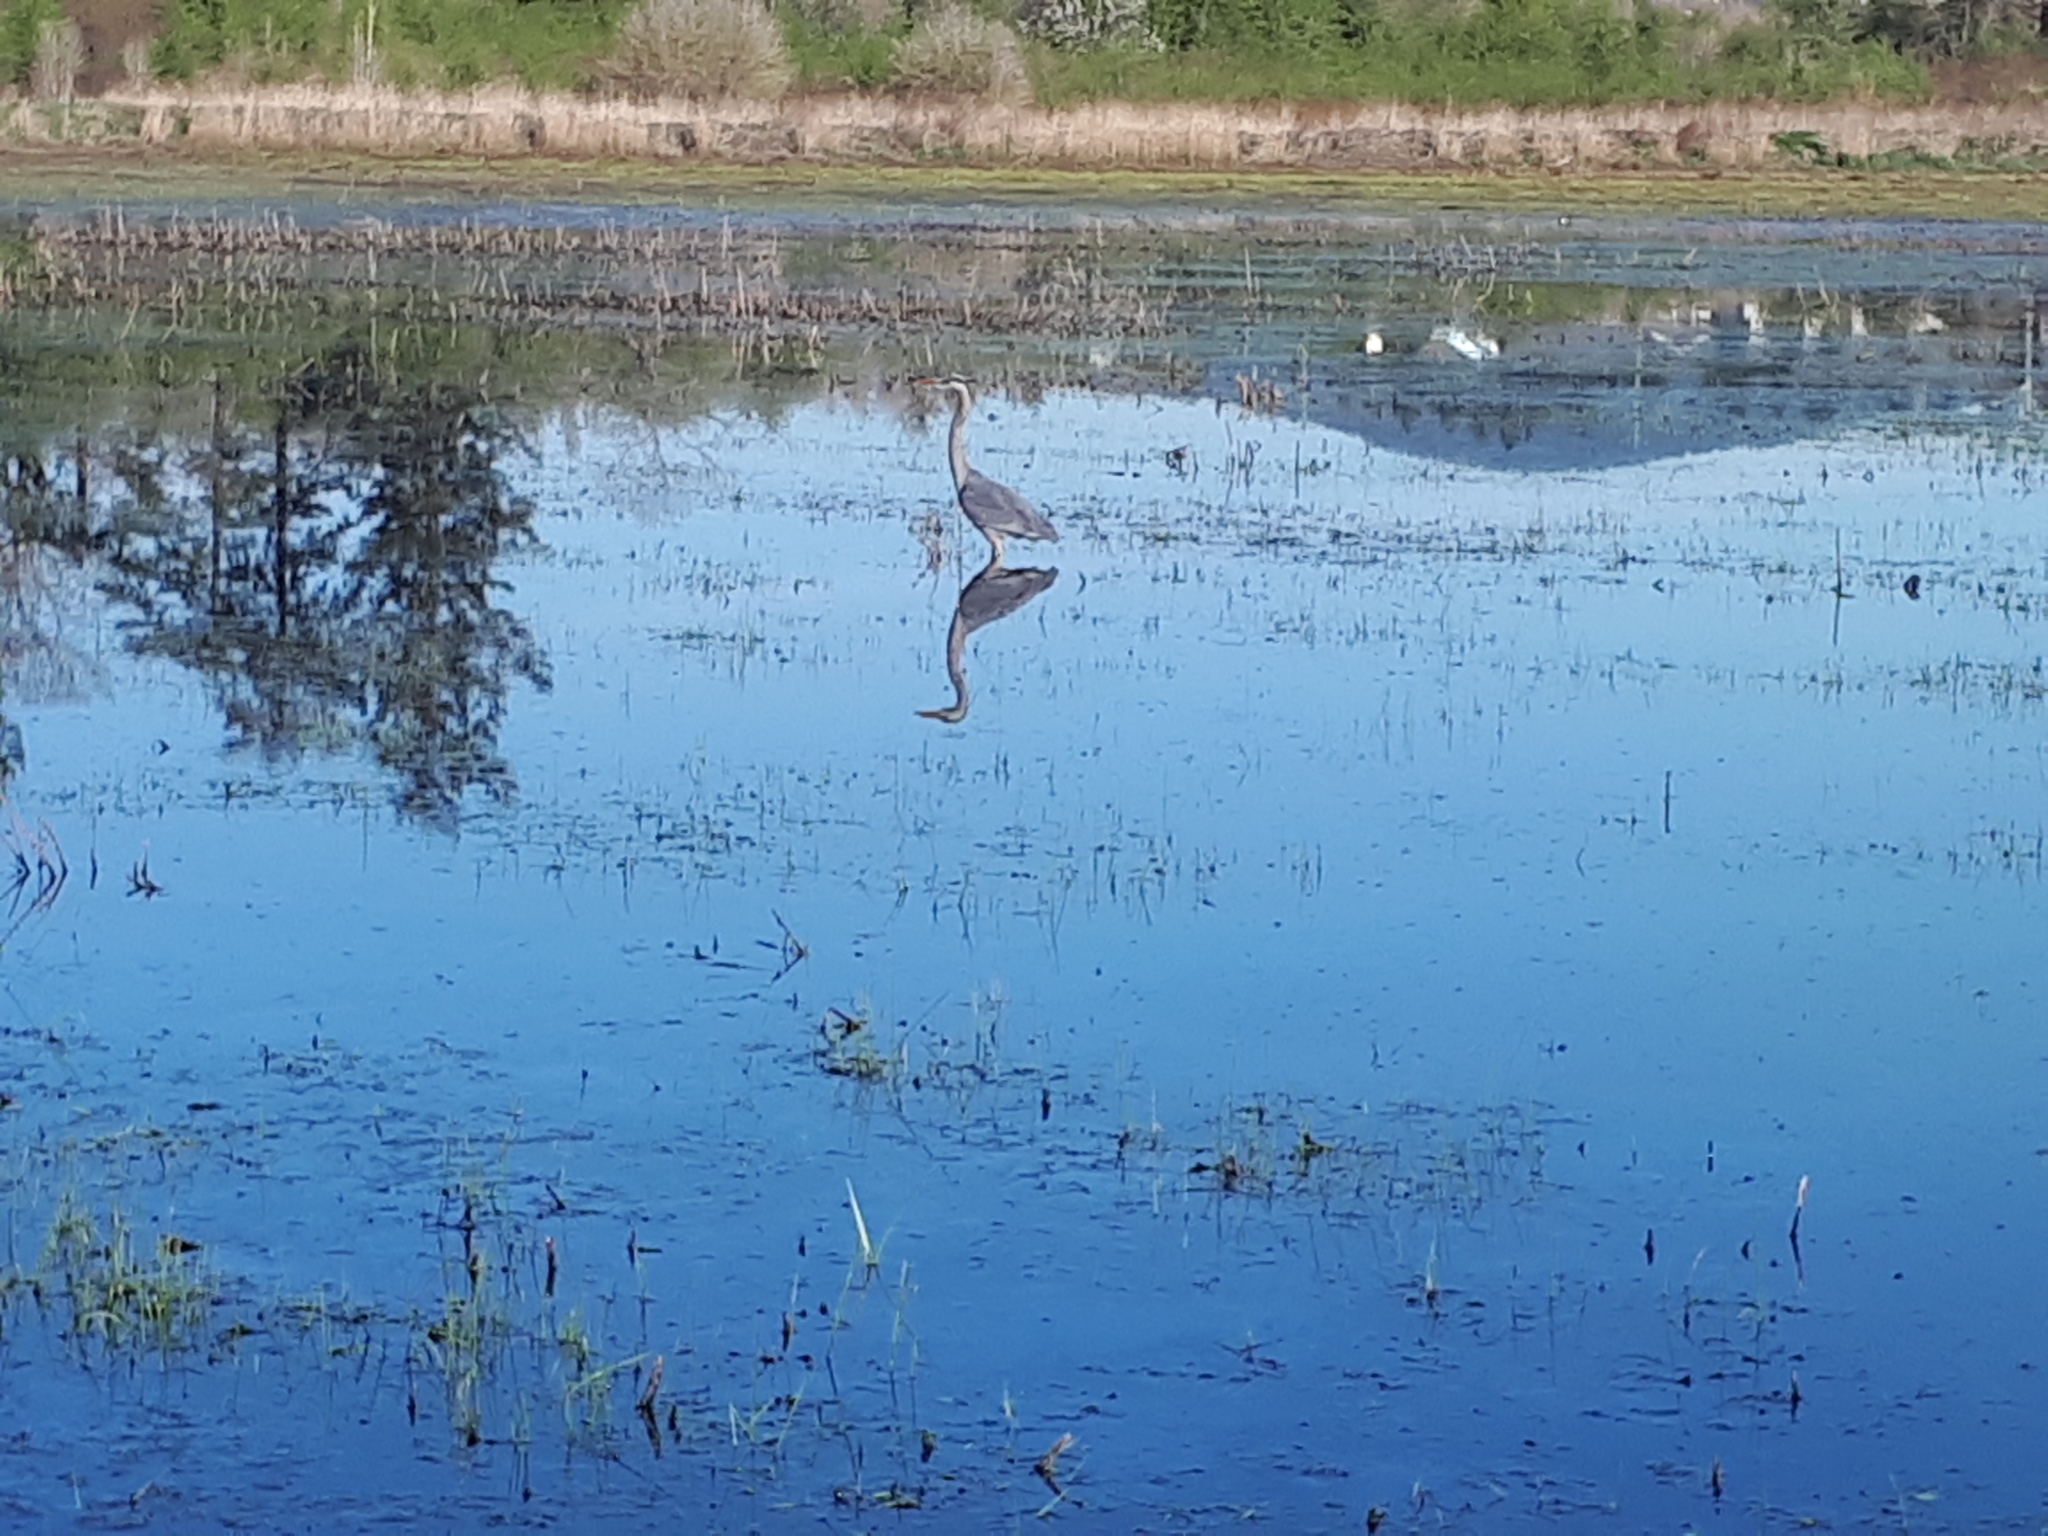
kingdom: Animalia
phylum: Chordata
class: Aves
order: Pelecaniformes
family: Ardeidae
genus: Ardea
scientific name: Ardea herodias
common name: Great blue heron
